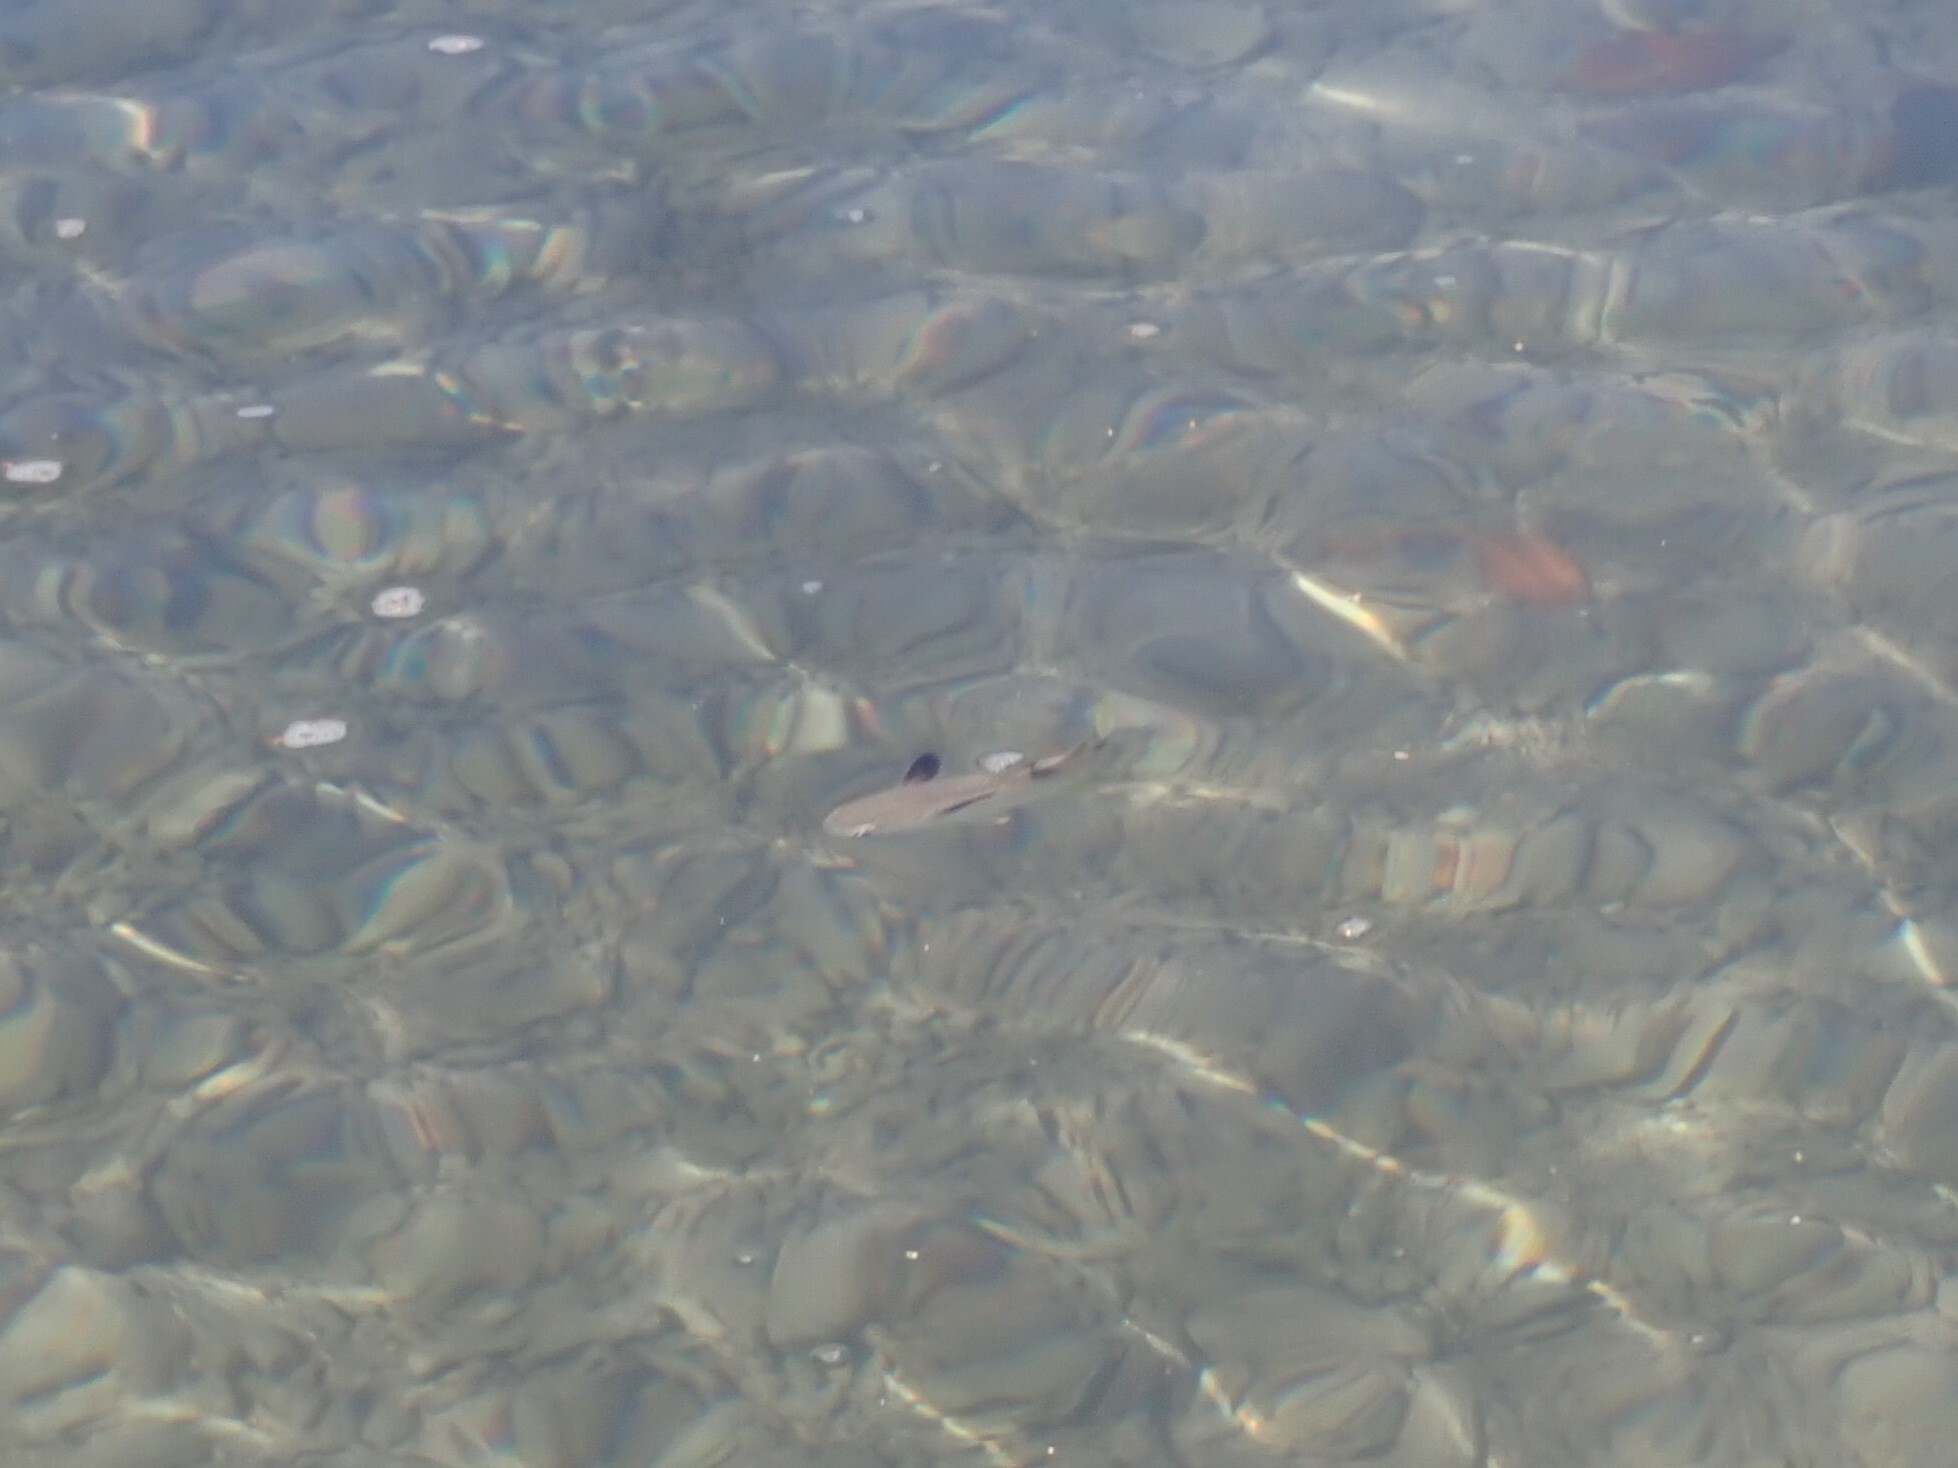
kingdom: Animalia
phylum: Chordata
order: Mugiliformes
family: Mugilidae
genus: Ellochelon
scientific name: Ellochelon vaigiensis
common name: Squaretail mullet
